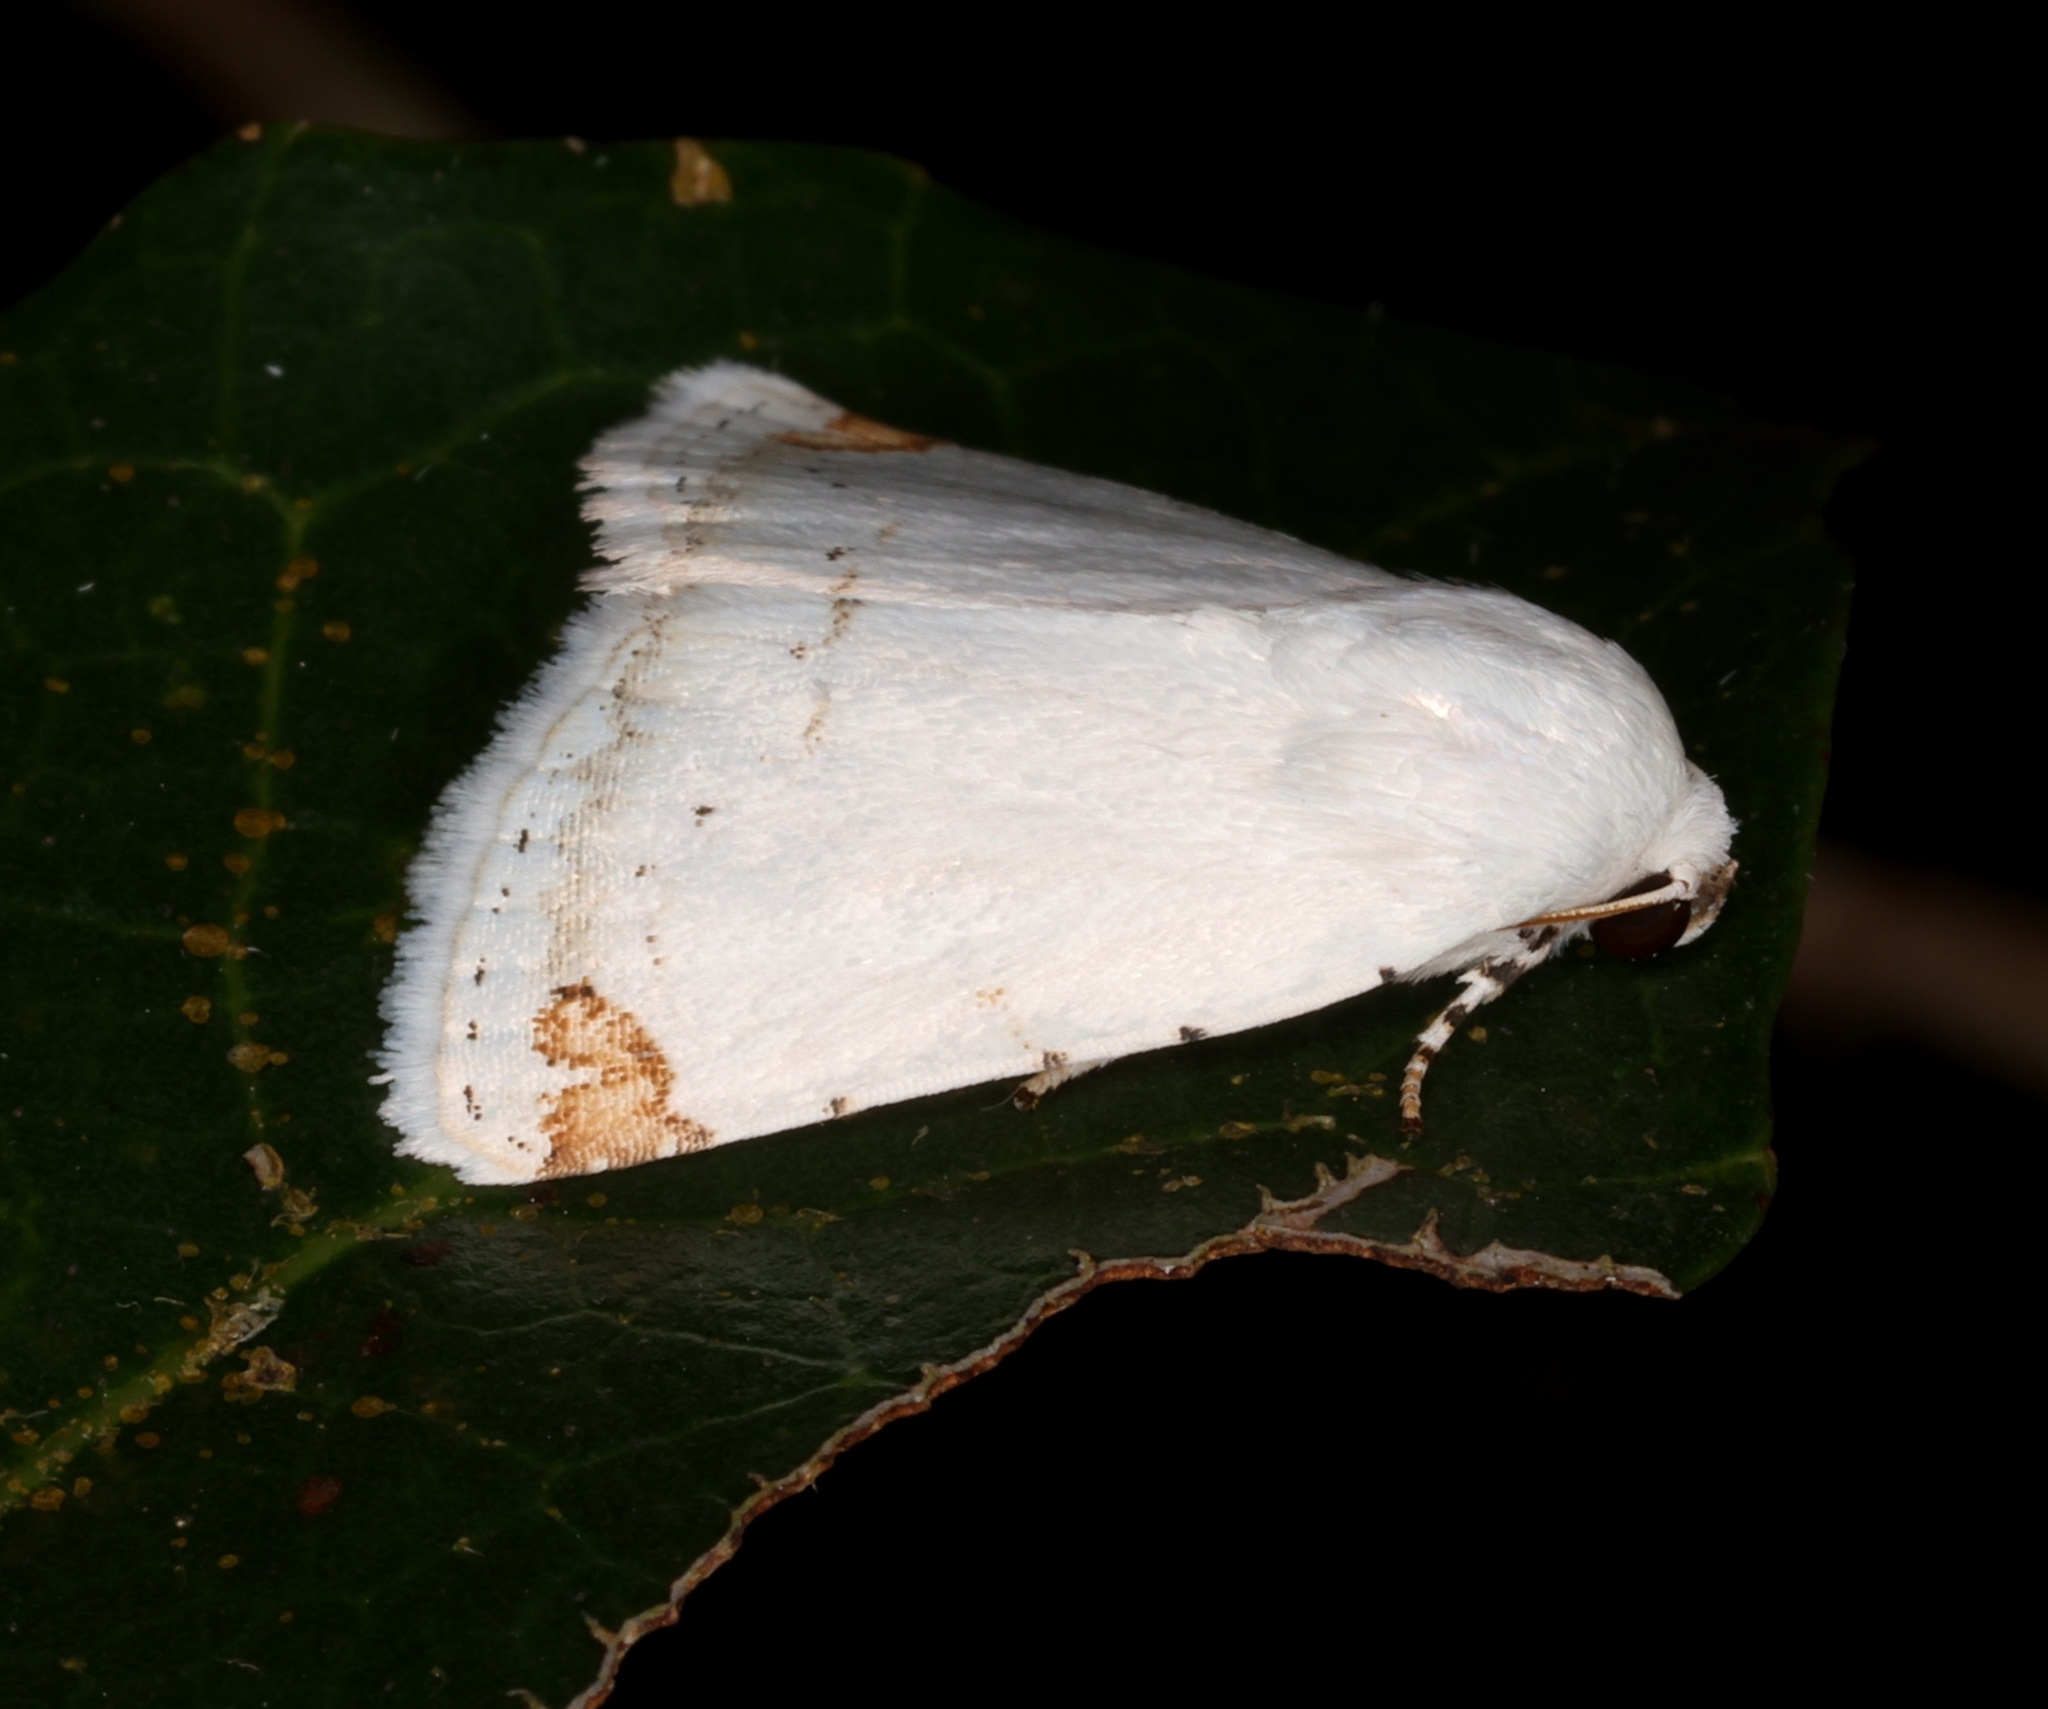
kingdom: Animalia
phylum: Arthropoda
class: Insecta
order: Lepidoptera
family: Noctuidae
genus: Sphragifera
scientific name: Sphragifera rejecta
